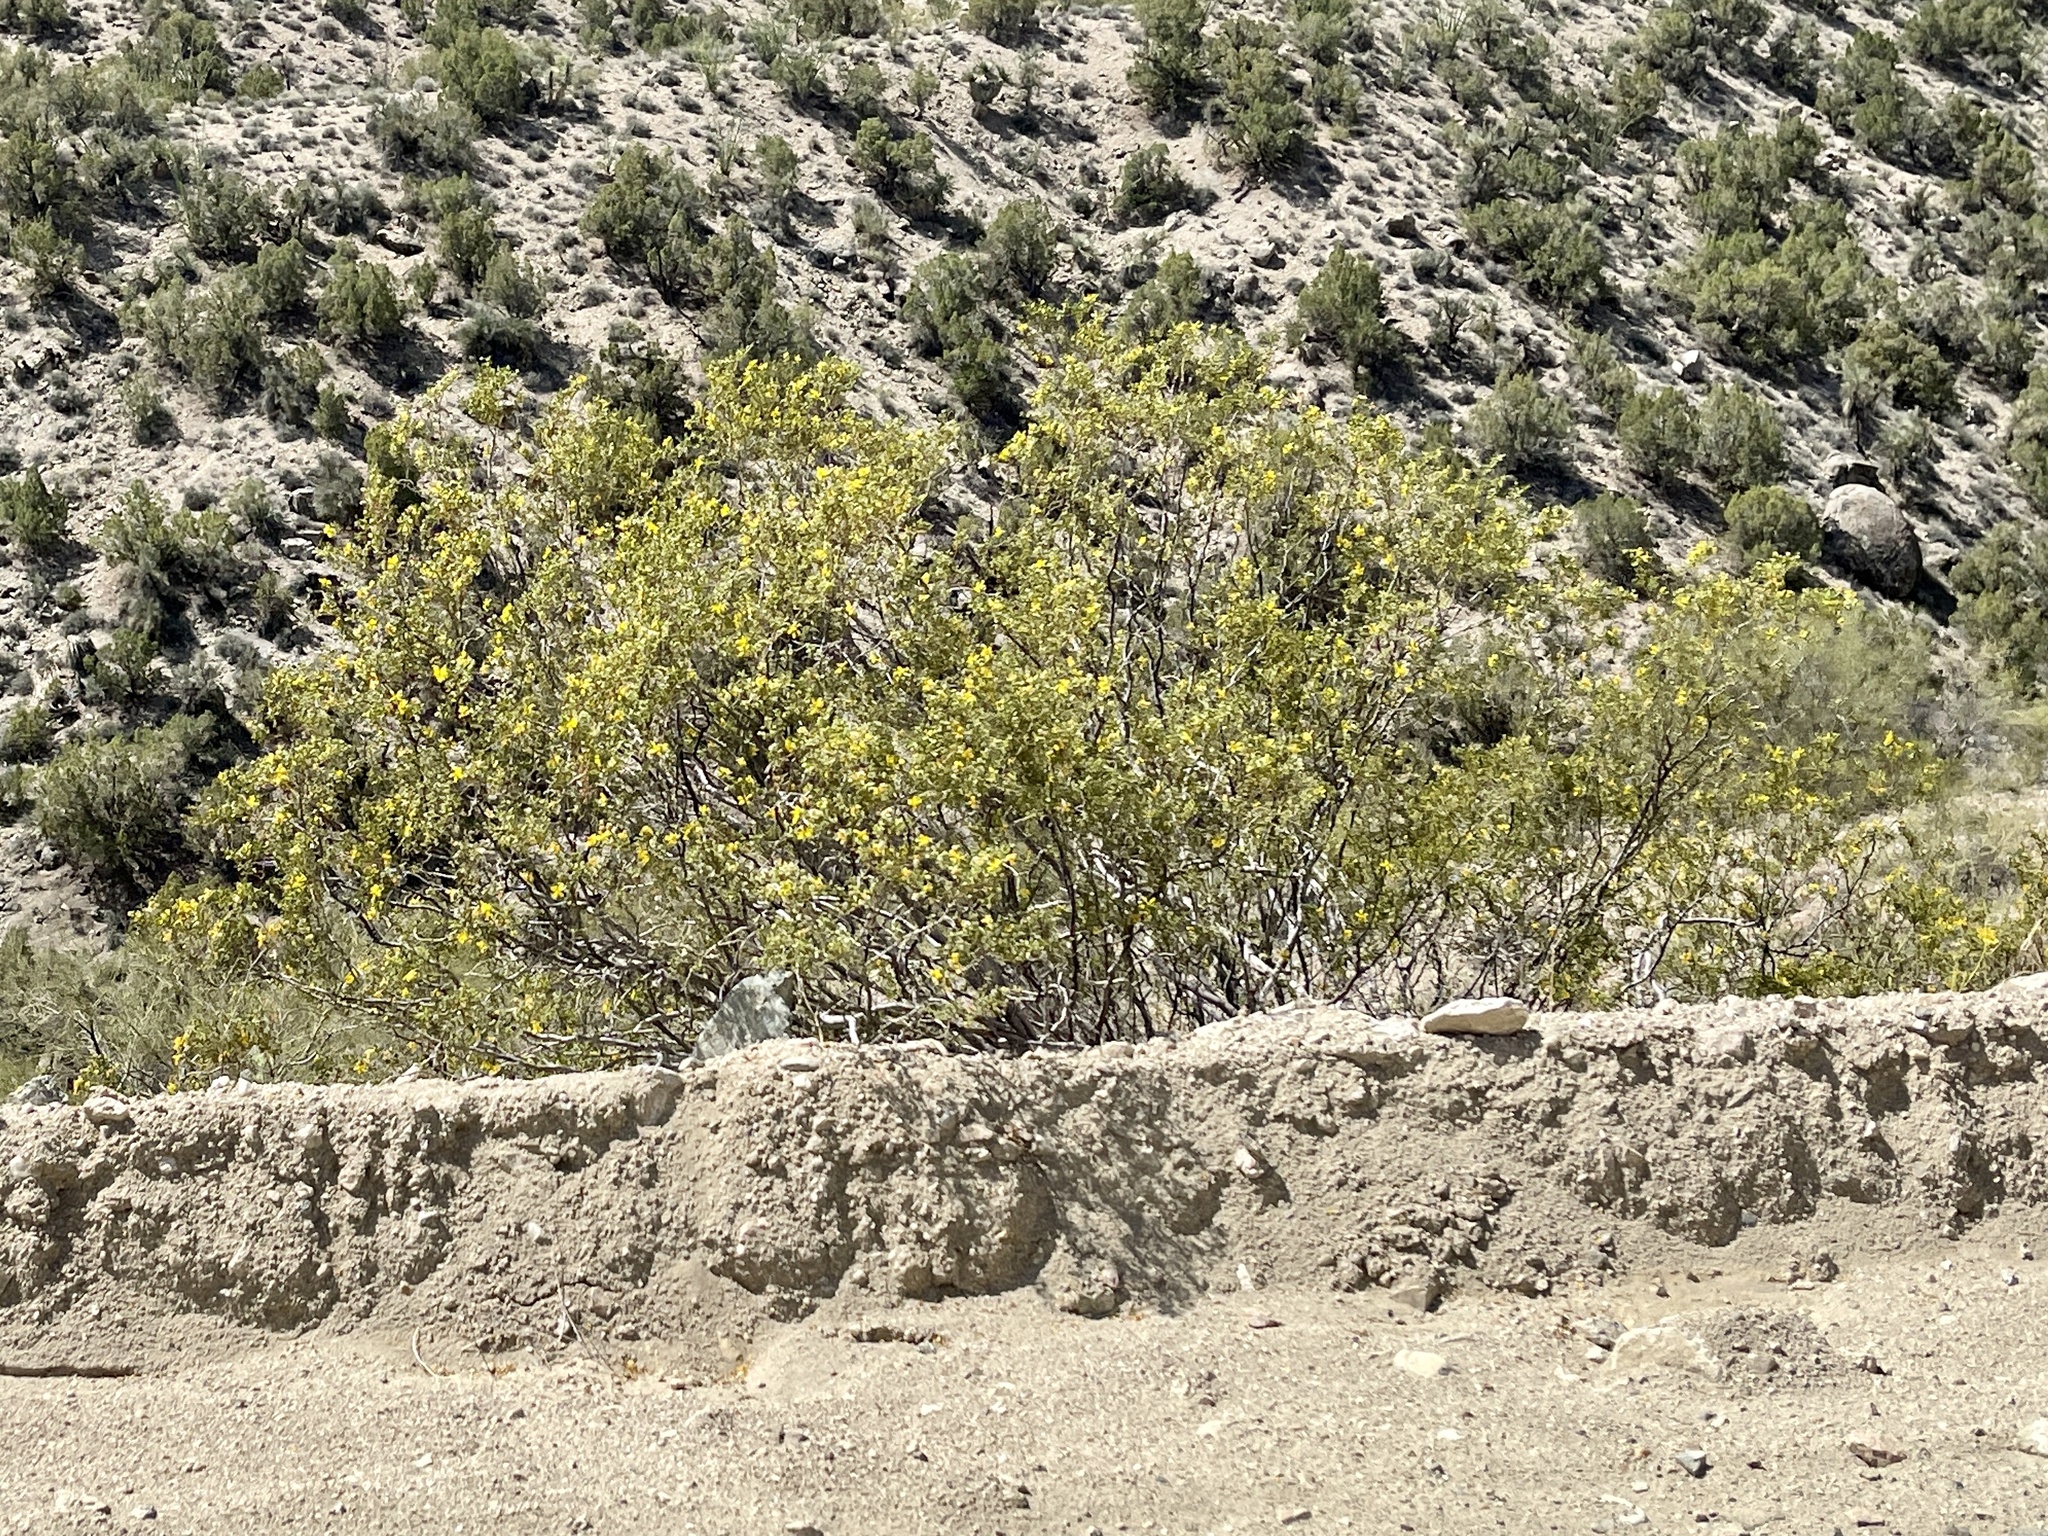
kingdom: Plantae
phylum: Tracheophyta
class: Magnoliopsida
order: Zygophyllales
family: Zygophyllaceae
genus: Larrea
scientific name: Larrea tridentata
